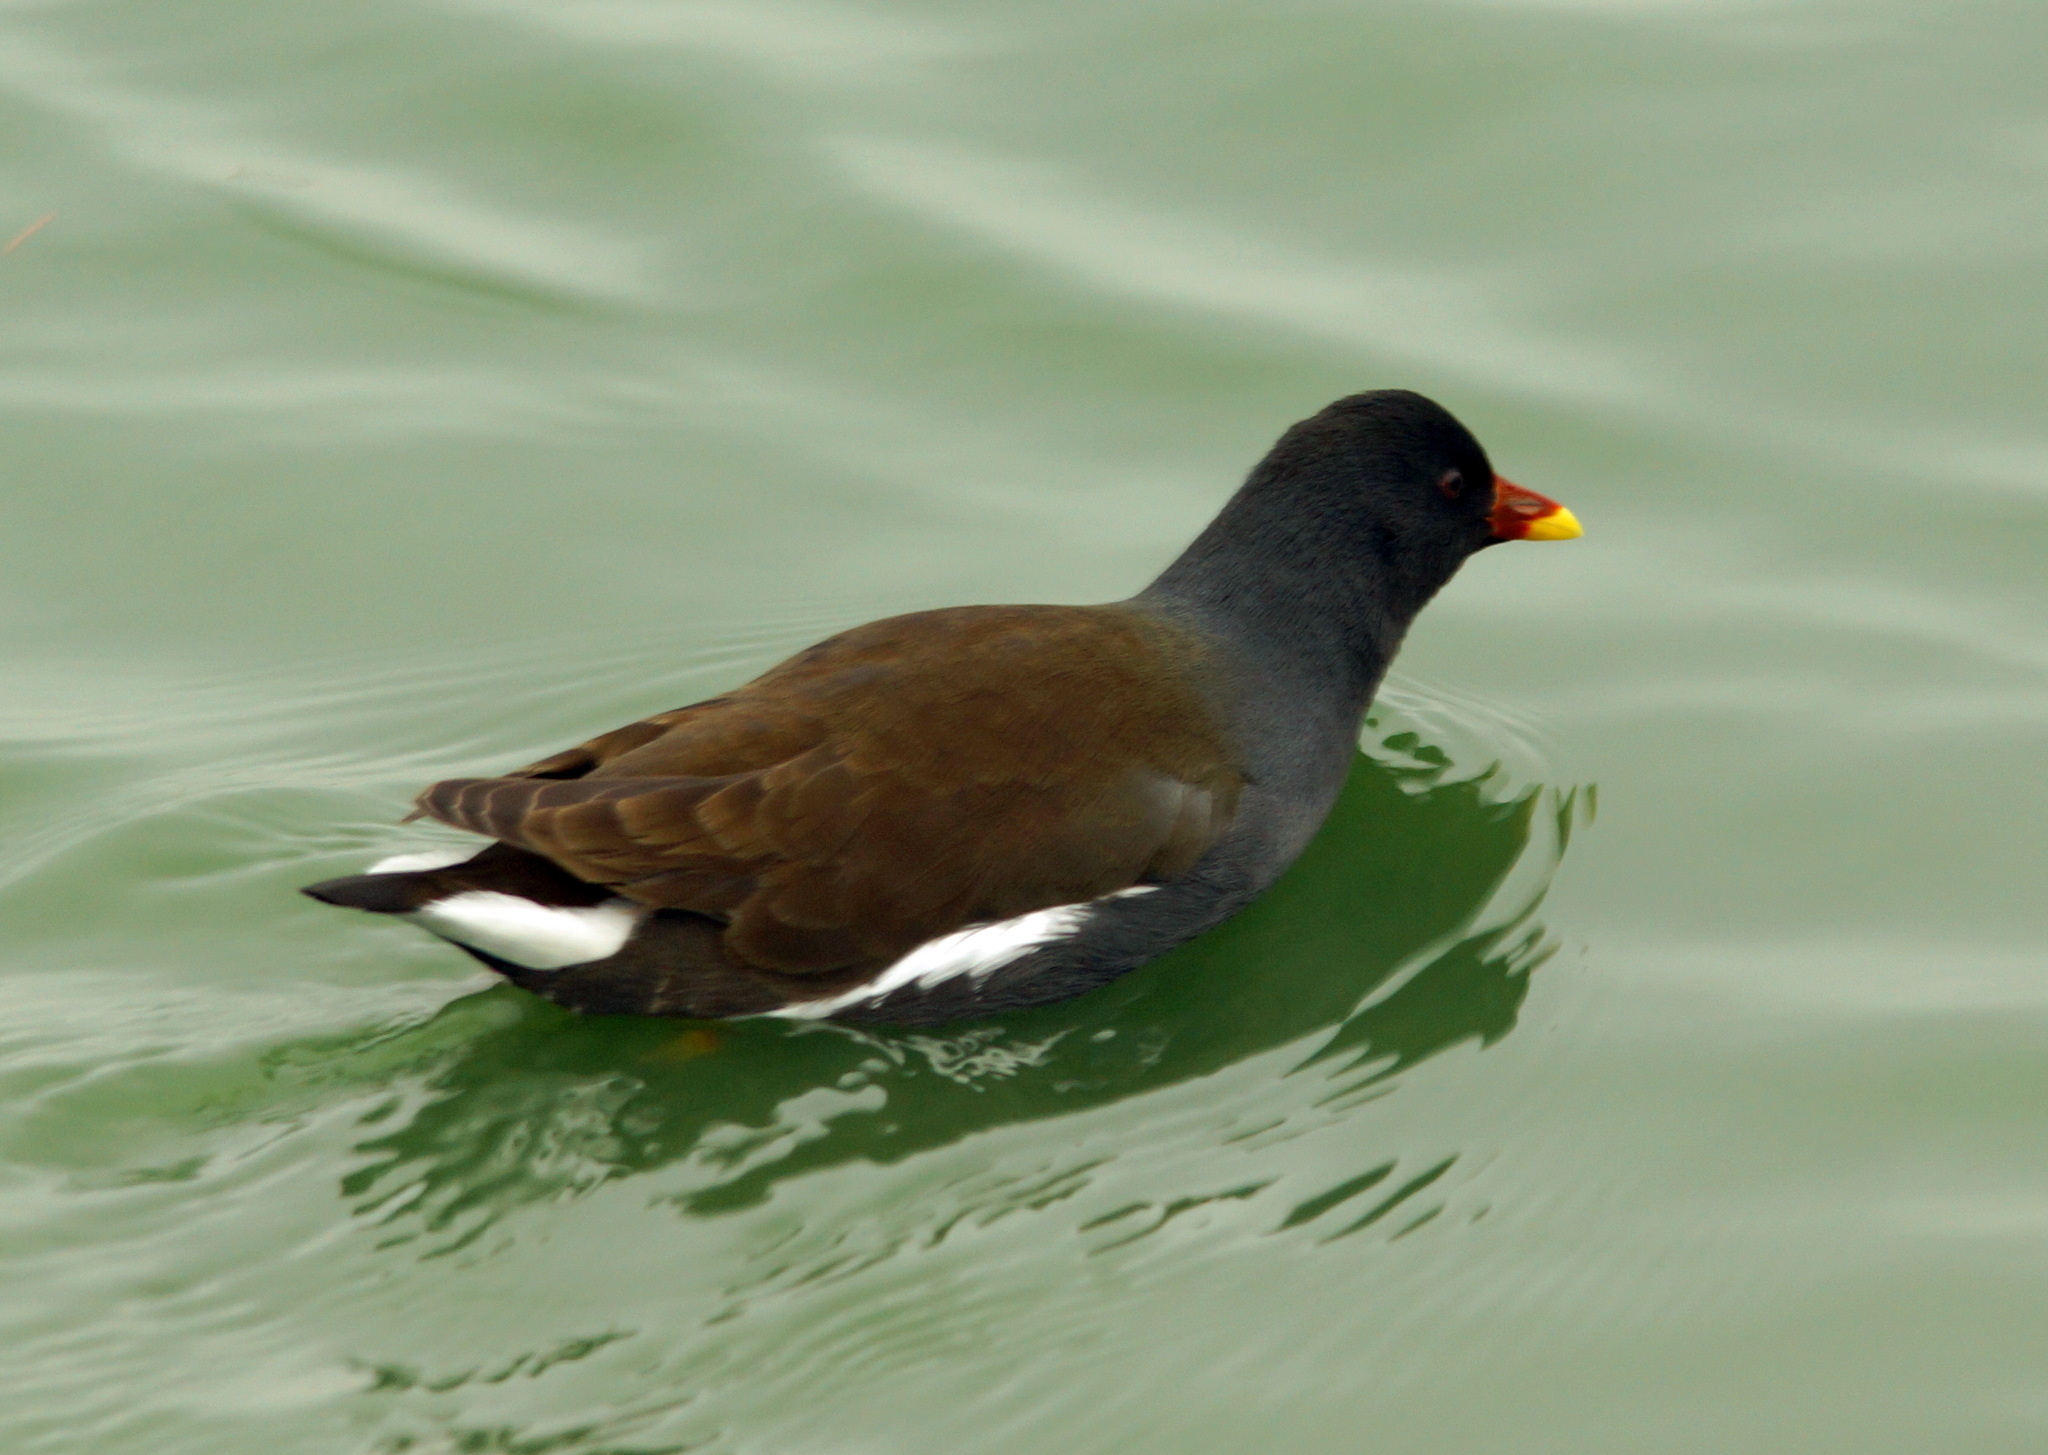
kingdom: Animalia
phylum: Chordata
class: Aves
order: Gruiformes
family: Rallidae
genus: Gallinula
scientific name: Gallinula chloropus
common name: Common moorhen
